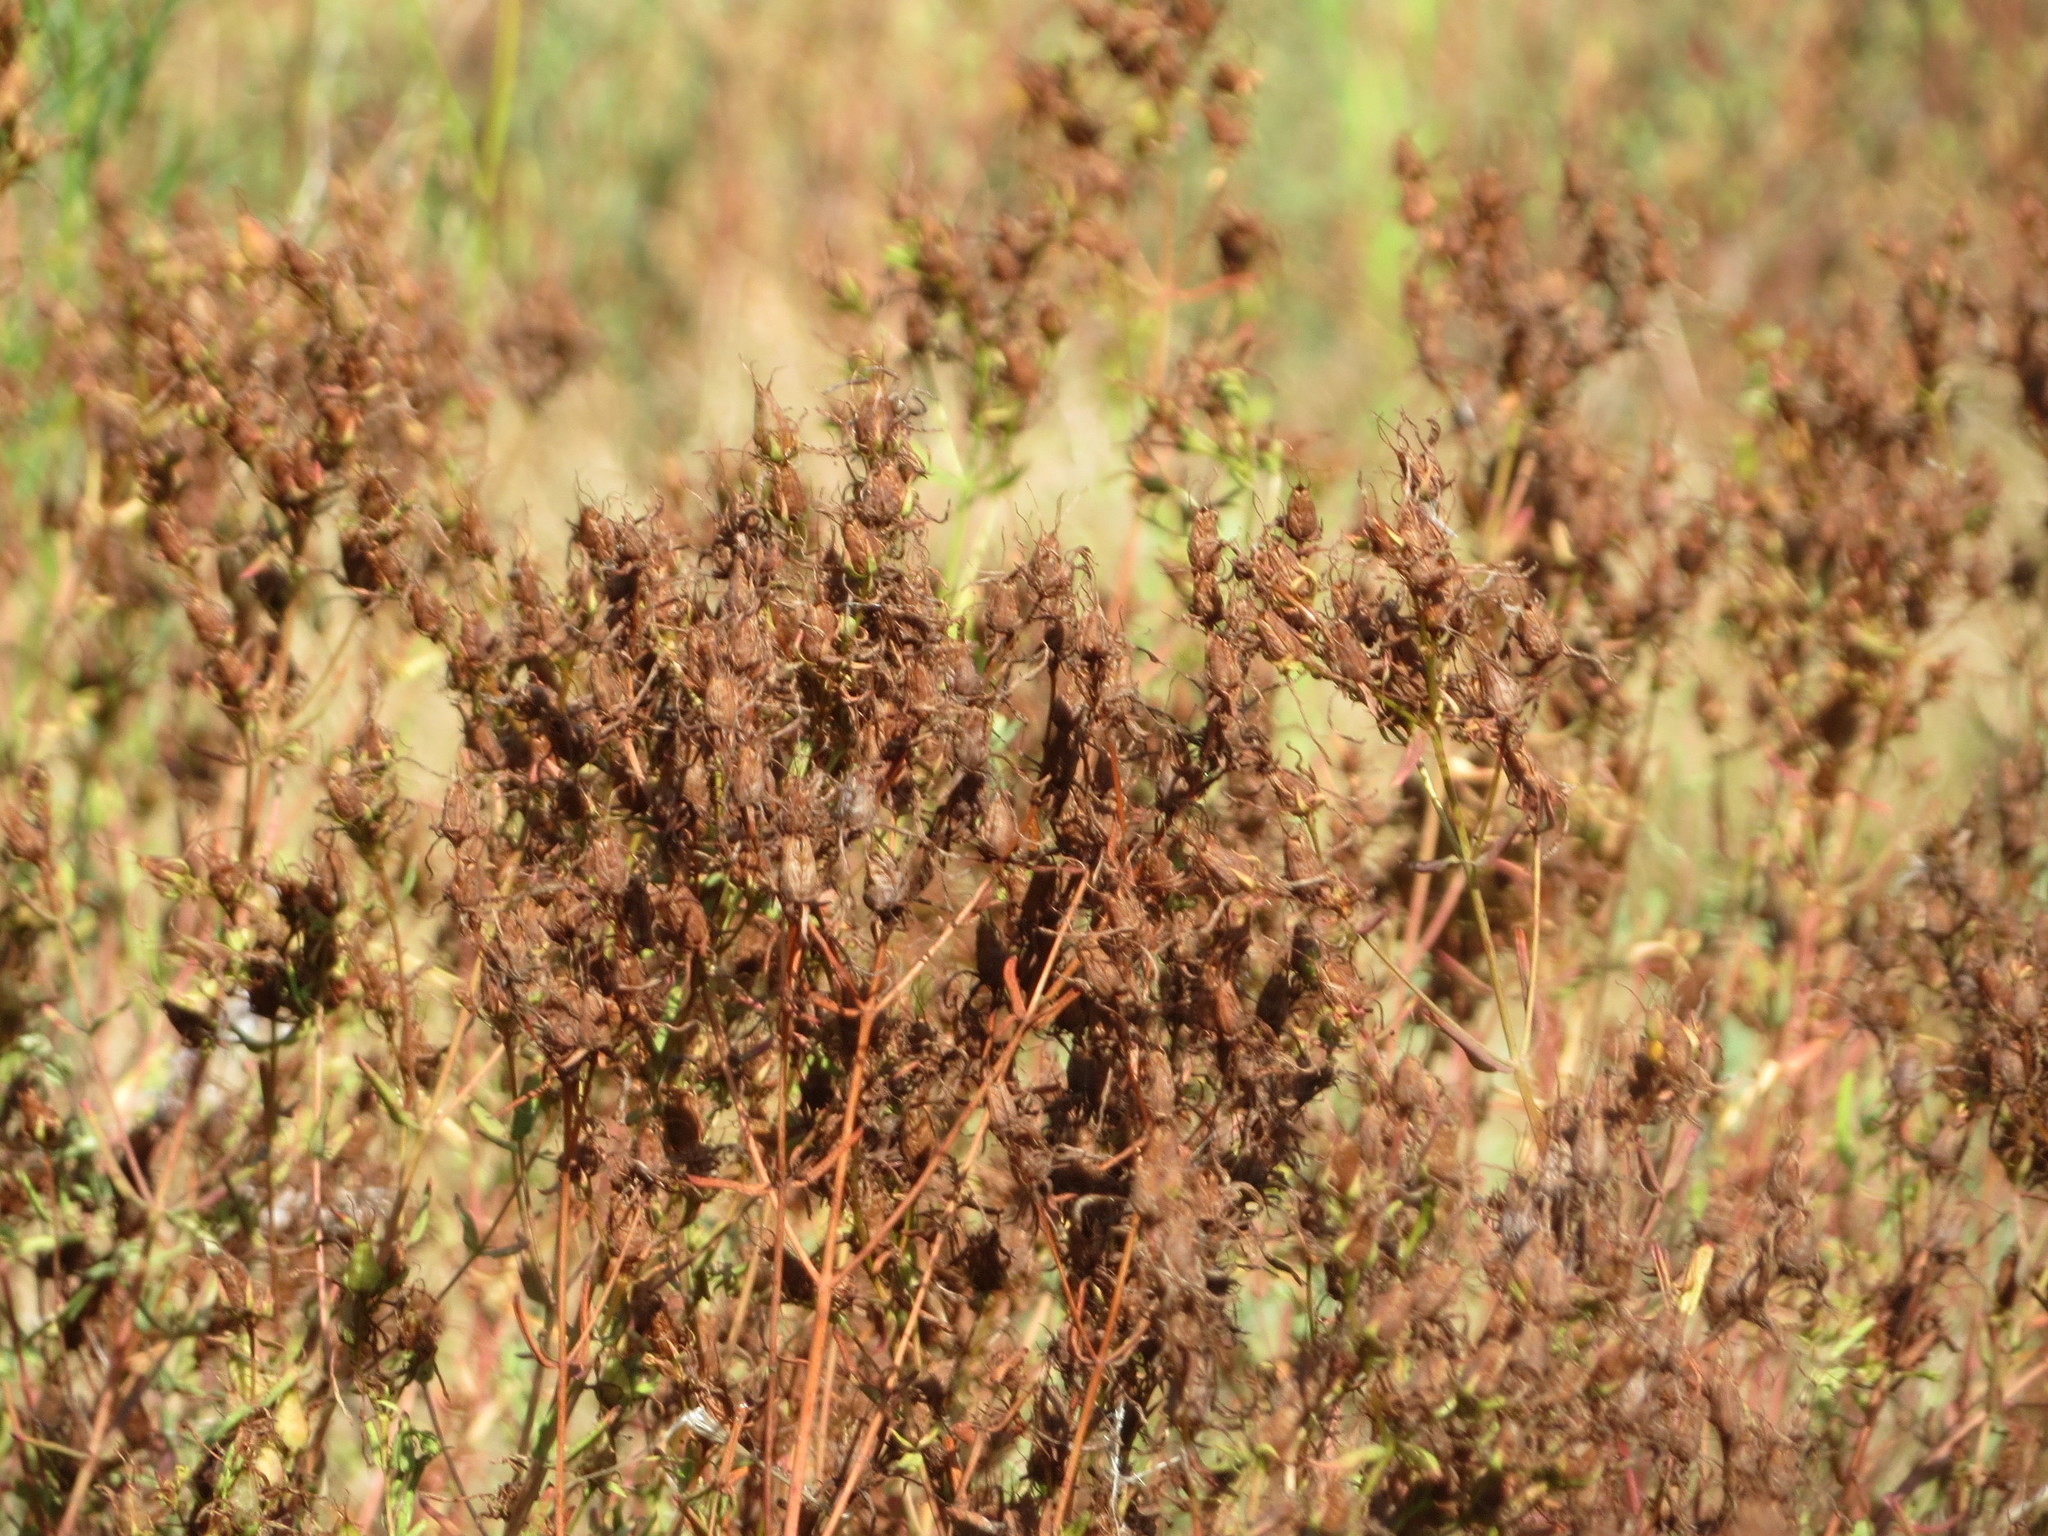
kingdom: Plantae
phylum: Tracheophyta
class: Magnoliopsida
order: Malpighiales
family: Hypericaceae
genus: Hypericum
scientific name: Hypericum perforatum
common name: Common st. johnswort
